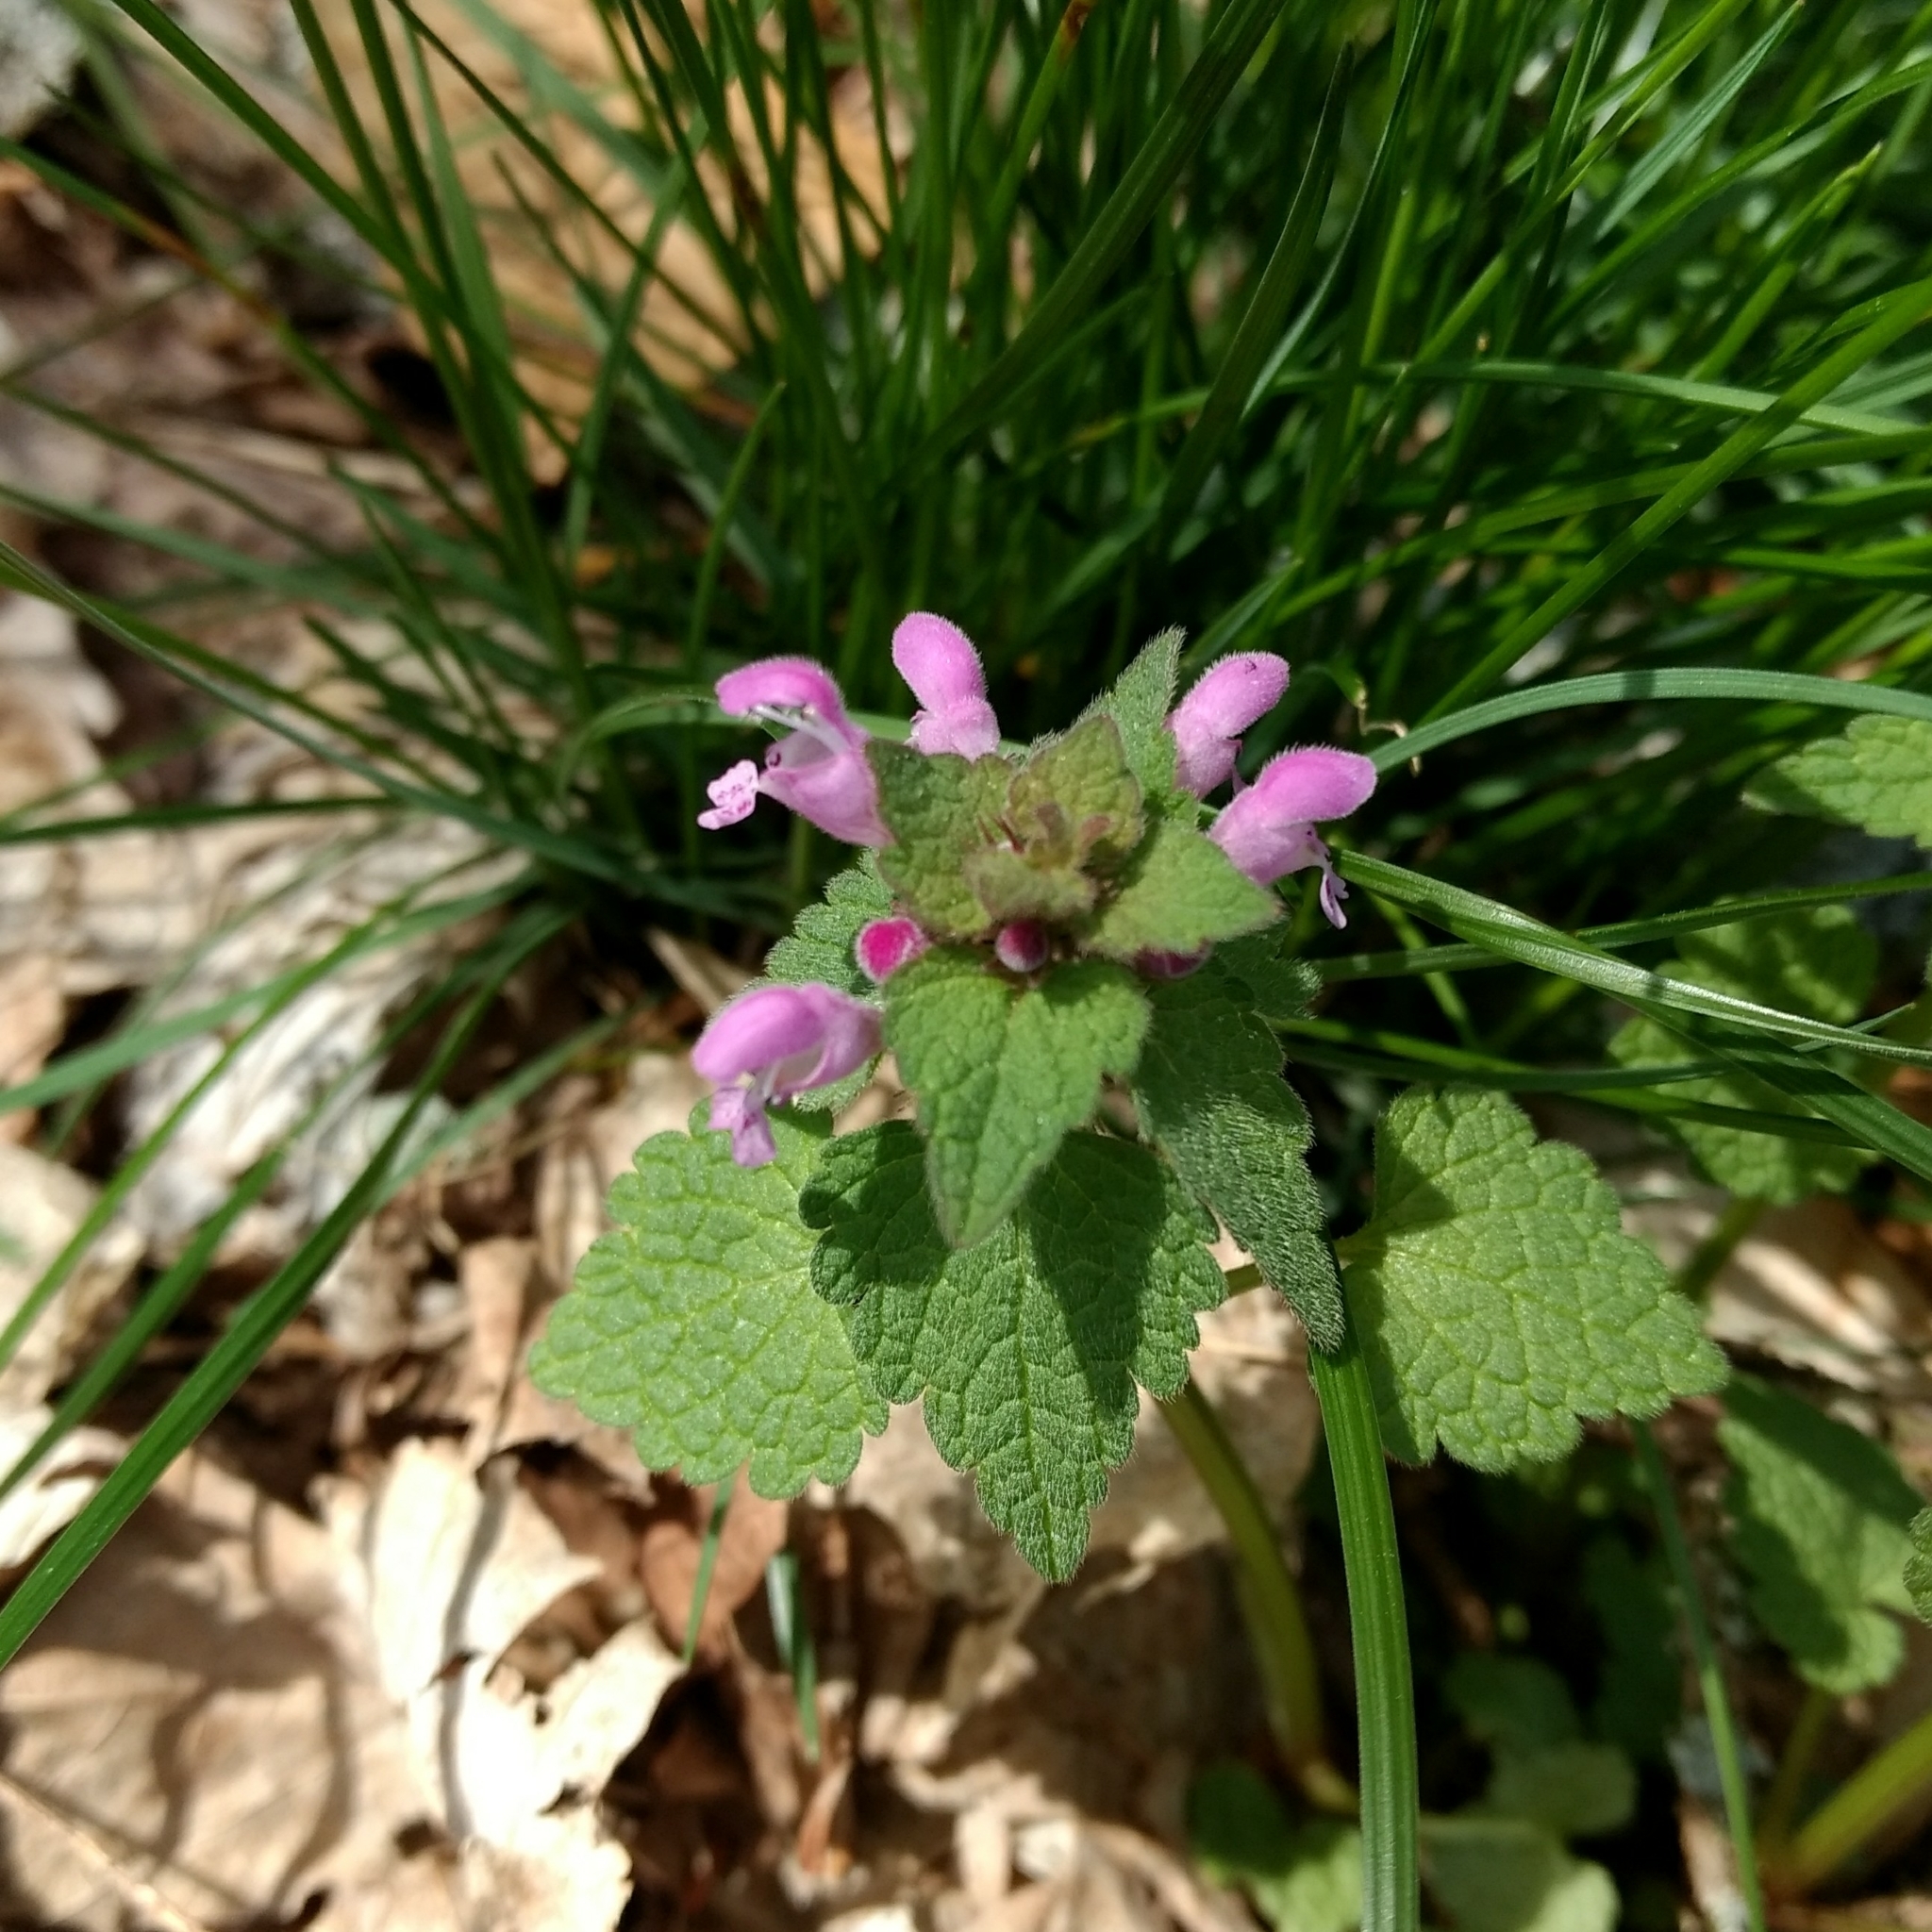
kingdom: Plantae
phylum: Tracheophyta
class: Magnoliopsida
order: Lamiales
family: Lamiaceae
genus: Lamium
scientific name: Lamium purpureum
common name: Red dead-nettle
